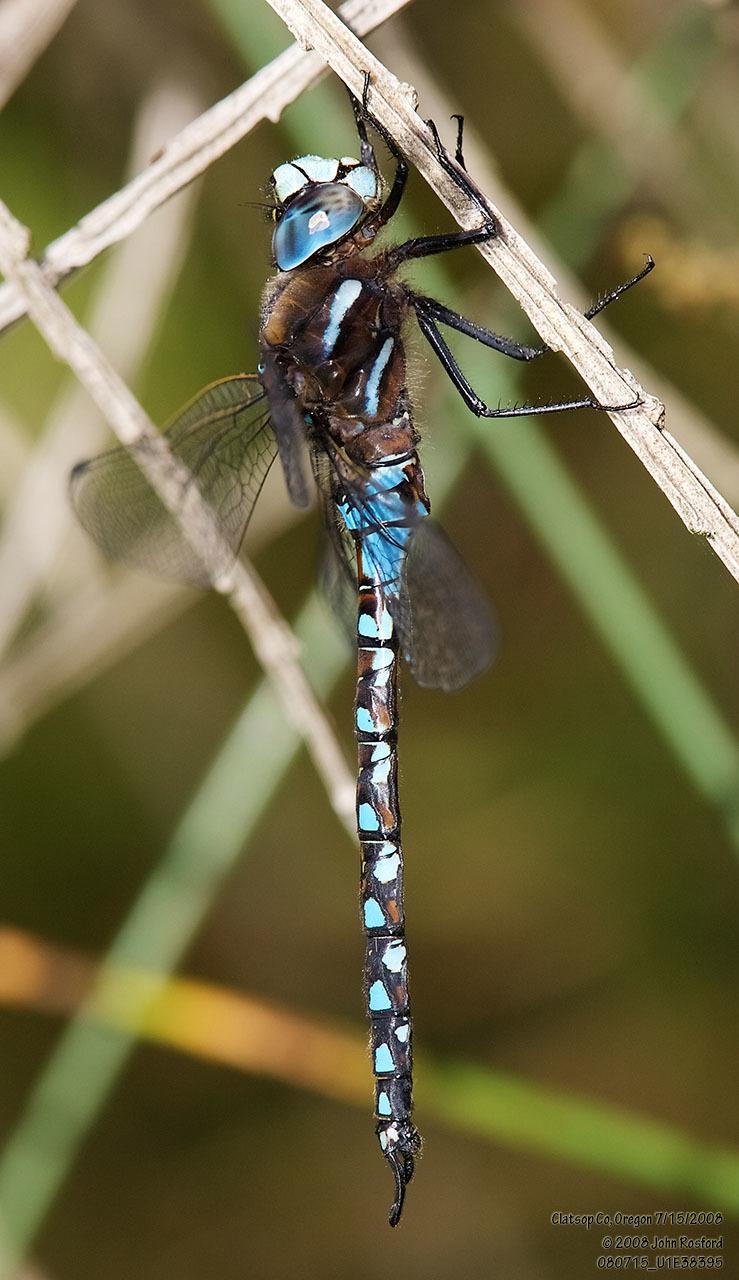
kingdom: Animalia
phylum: Arthropoda
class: Insecta
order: Odonata
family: Aeshnidae
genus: Rhionaeschna
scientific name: Rhionaeschna californica
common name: California darner
